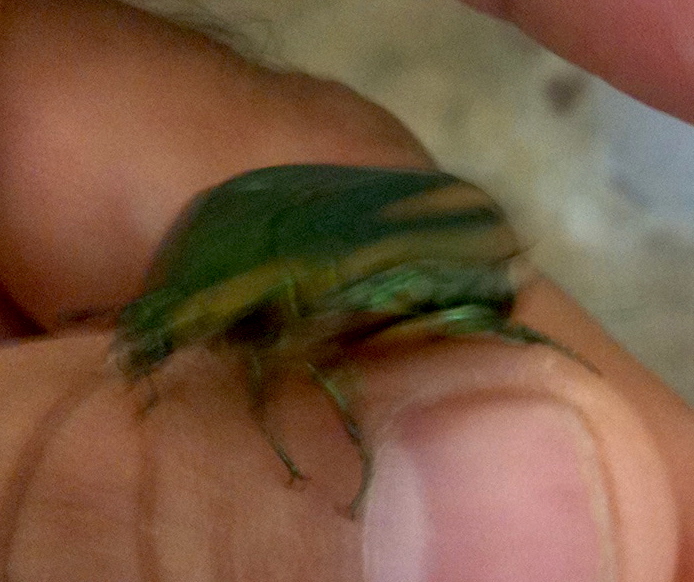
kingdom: Animalia
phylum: Arthropoda
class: Insecta
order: Coleoptera
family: Scarabaeidae
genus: Cotinis
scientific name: Cotinis nitida
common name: Common green june beetle
